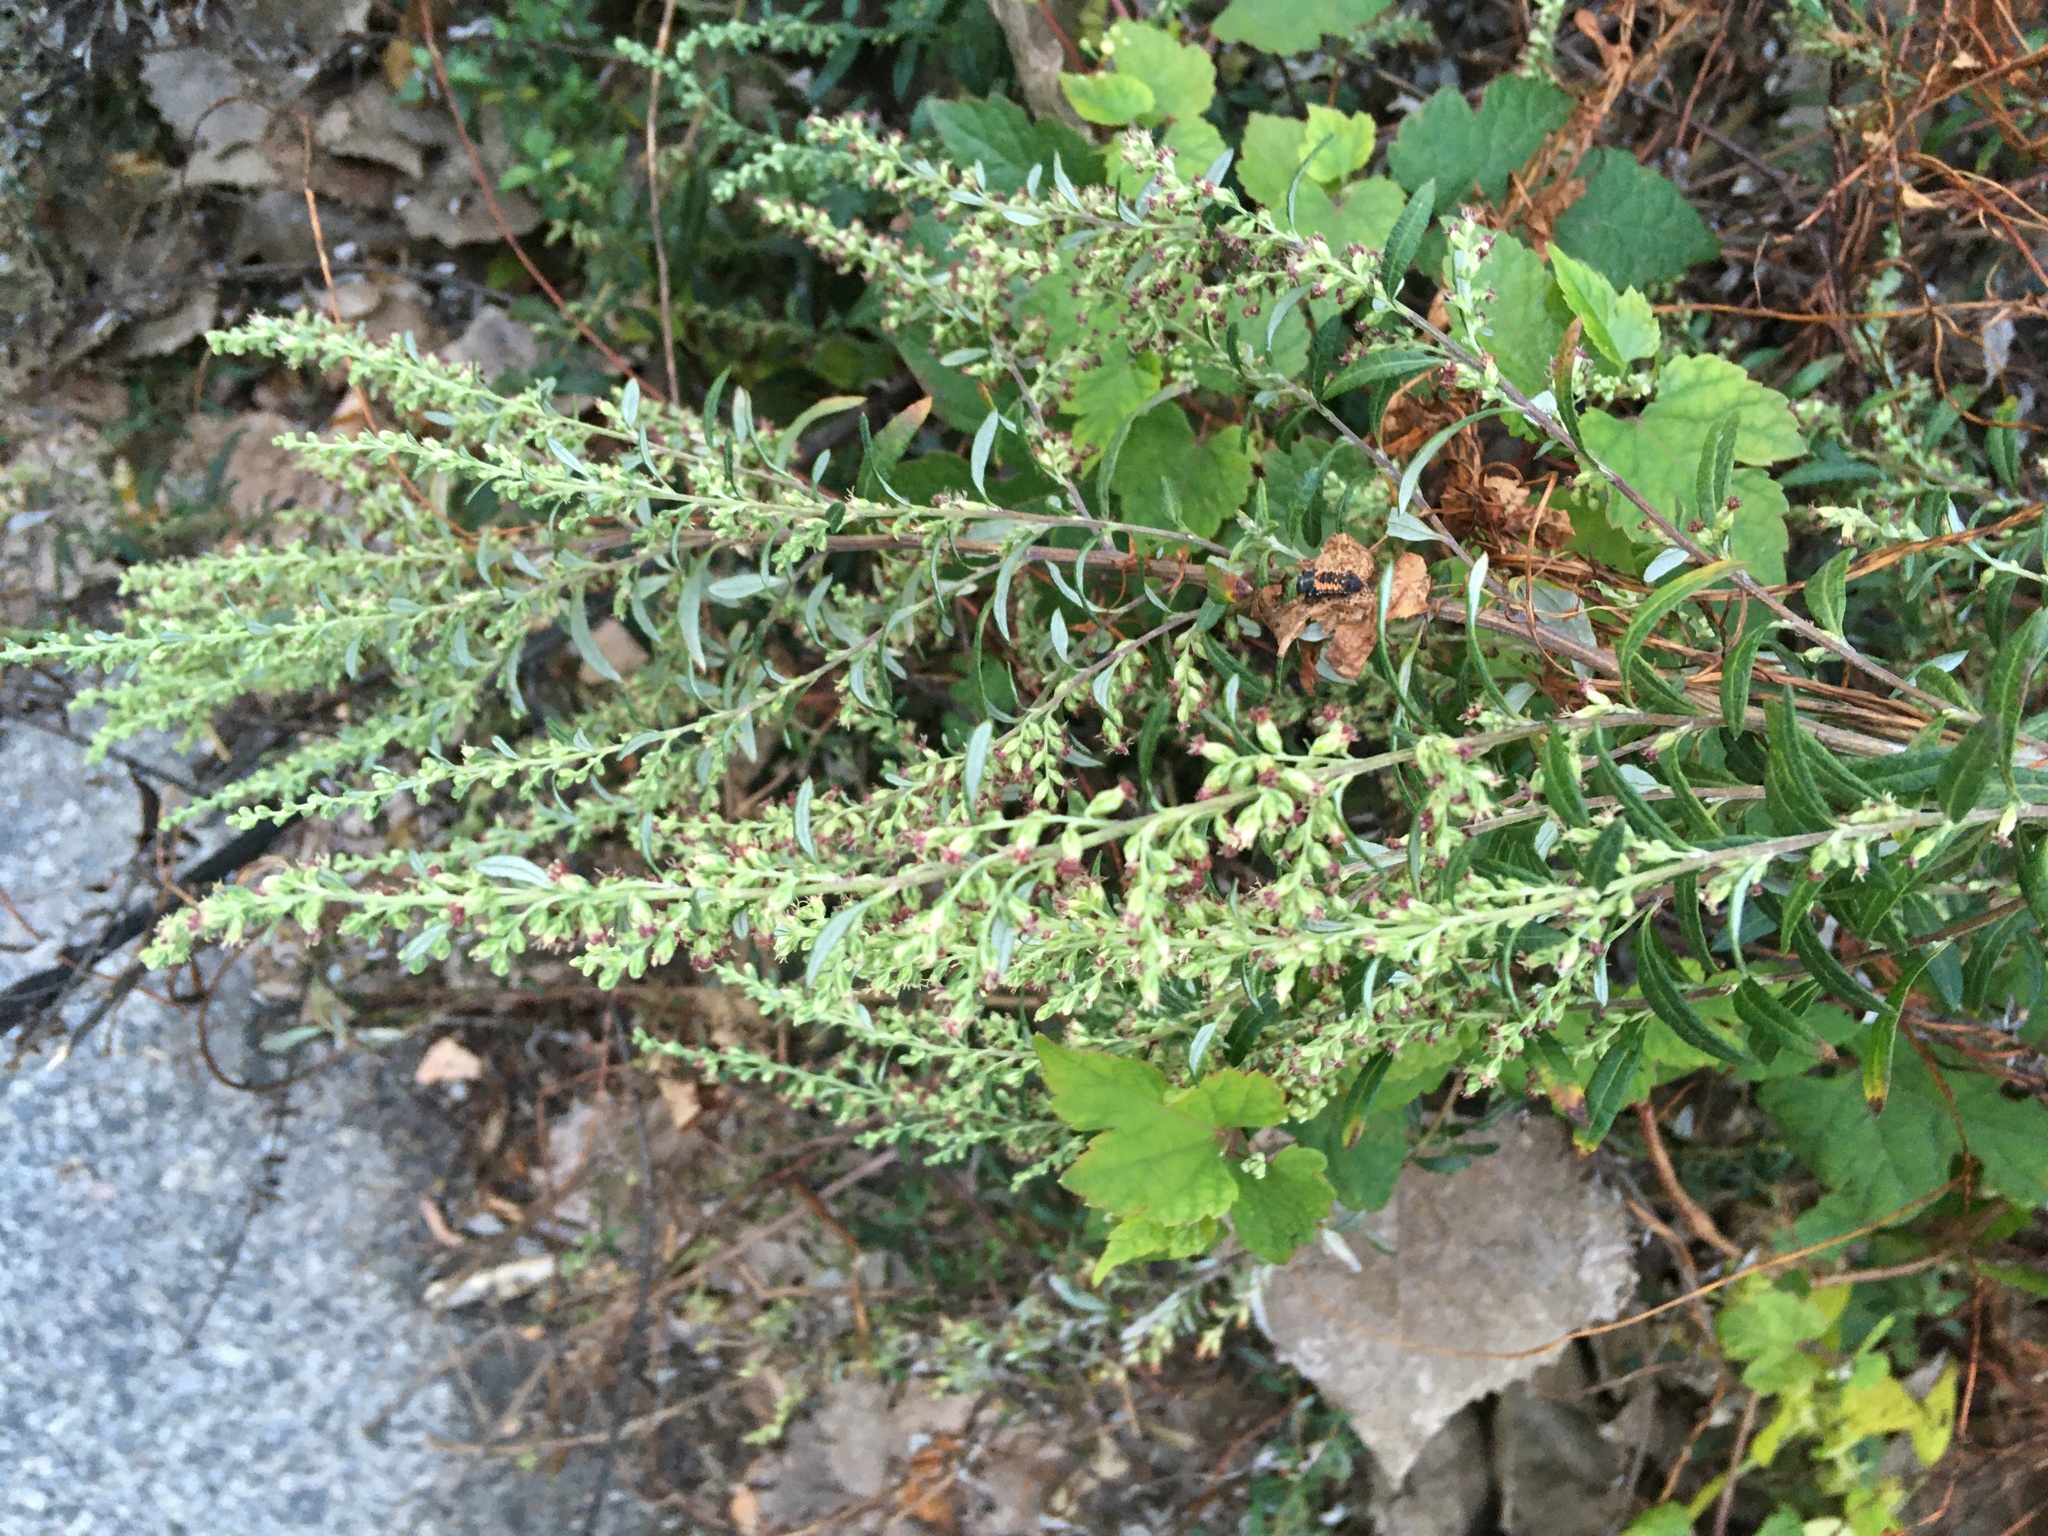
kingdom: Plantae
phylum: Tracheophyta
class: Magnoliopsida
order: Asterales
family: Asteraceae
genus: Artemisia
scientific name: Artemisia vulgaris
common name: Mugwort
